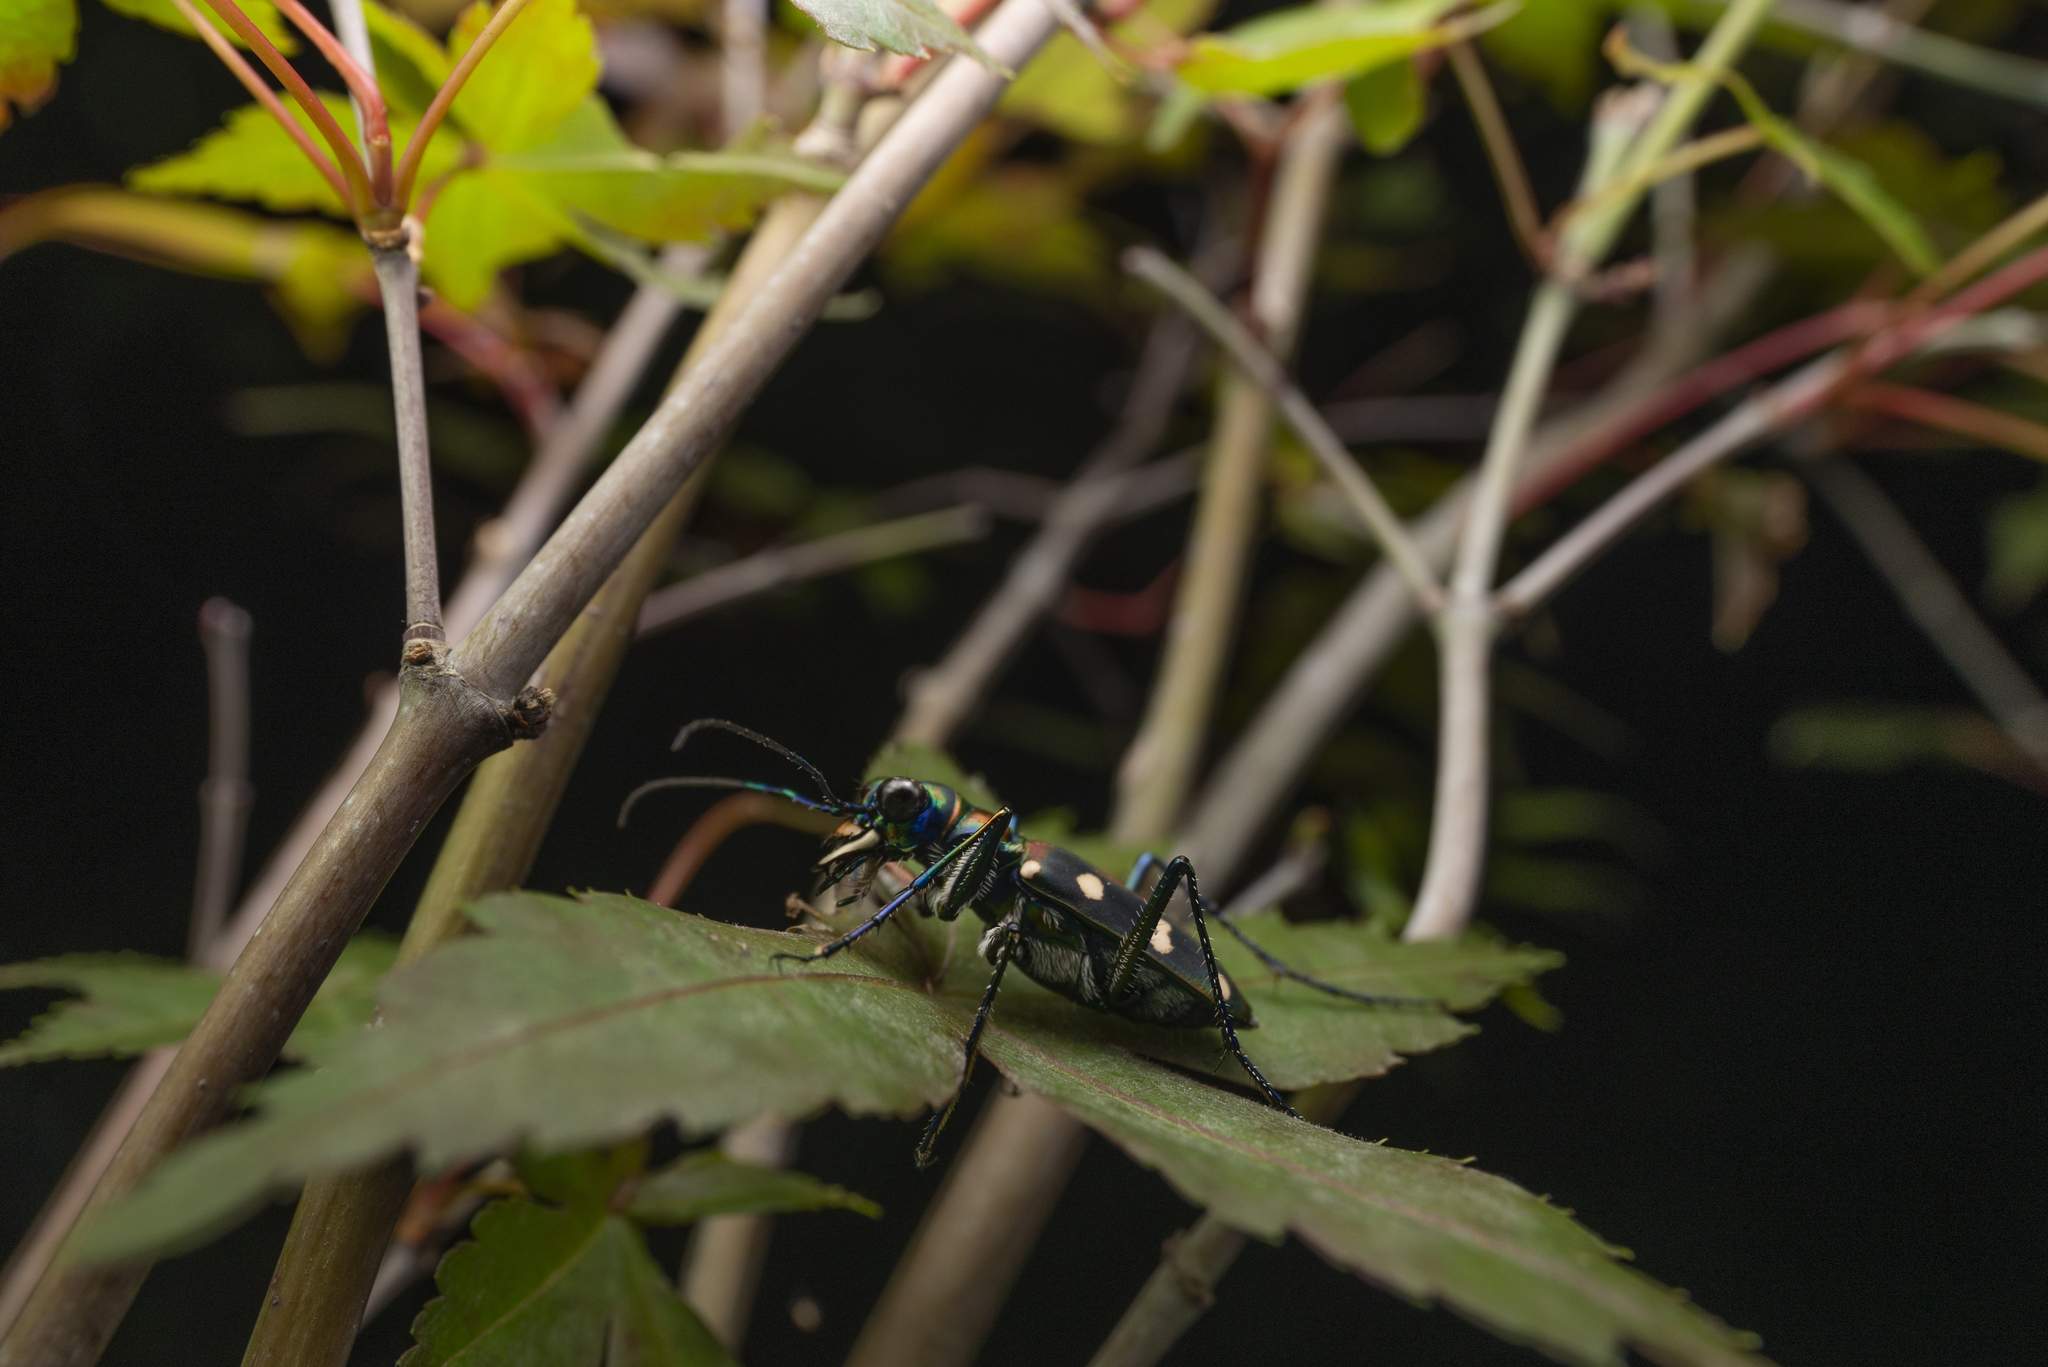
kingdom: Animalia
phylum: Arthropoda
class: Insecta
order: Coleoptera
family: Carabidae
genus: Cicindela
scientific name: Cicindela aurulenta
